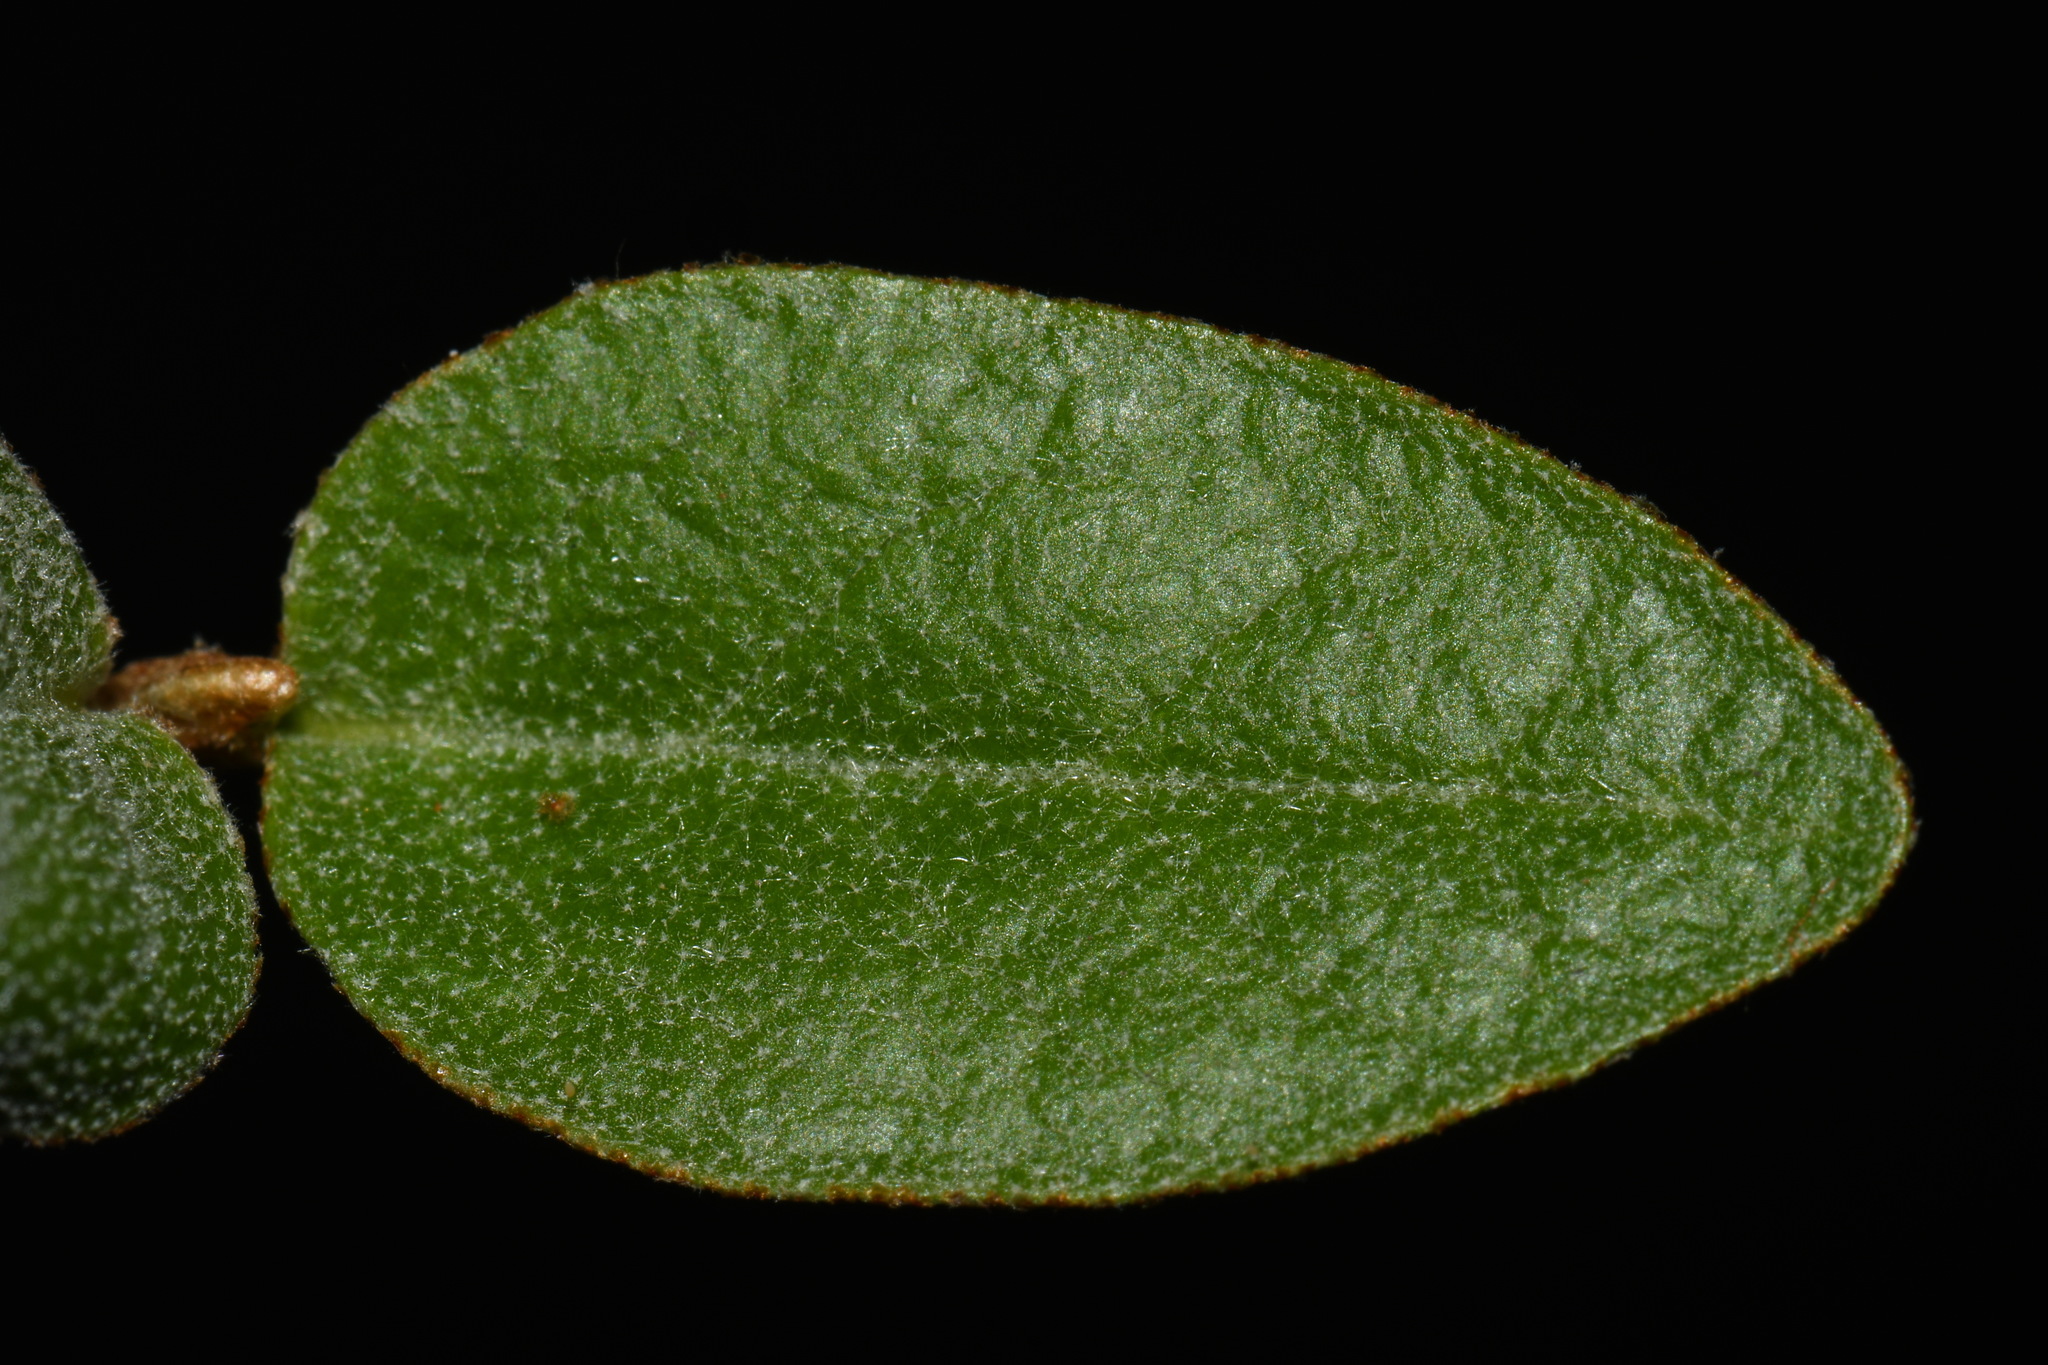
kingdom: Plantae
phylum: Tracheophyta
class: Magnoliopsida
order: Rosales
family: Elaeagnaceae
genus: Shepherdia
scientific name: Shepherdia canadensis
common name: Soapberry
